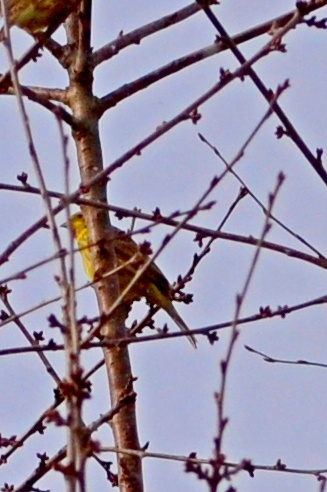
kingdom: Animalia
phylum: Chordata
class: Aves
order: Passeriformes
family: Emberizidae
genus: Emberiza
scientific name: Emberiza citrinella
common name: Yellowhammer
